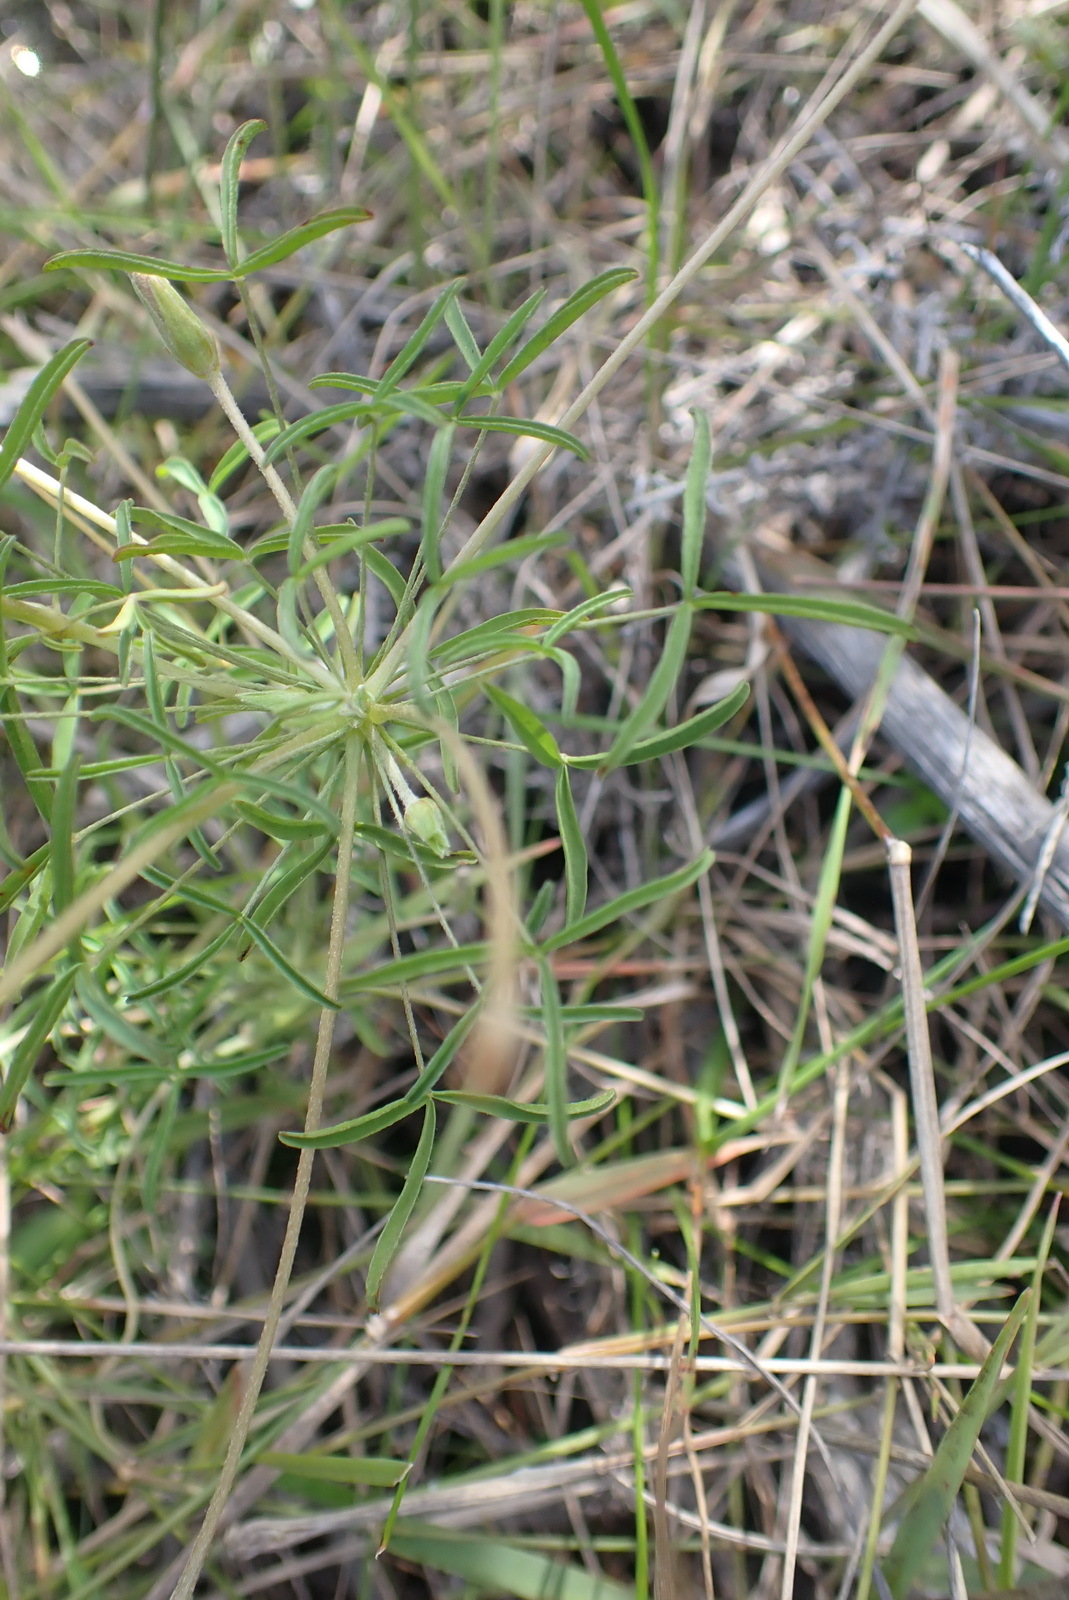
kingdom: Plantae
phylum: Tracheophyta
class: Magnoliopsida
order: Oxalidales
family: Oxalidaceae
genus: Oxalis
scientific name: Oxalis ciliaris
